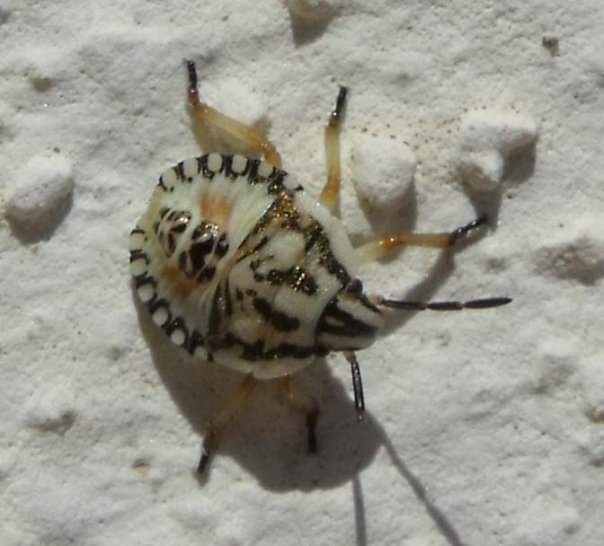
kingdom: Animalia
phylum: Arthropoda
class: Insecta
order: Hemiptera
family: Pentatomidae
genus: Carpocoris
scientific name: Carpocoris purpureipennis
